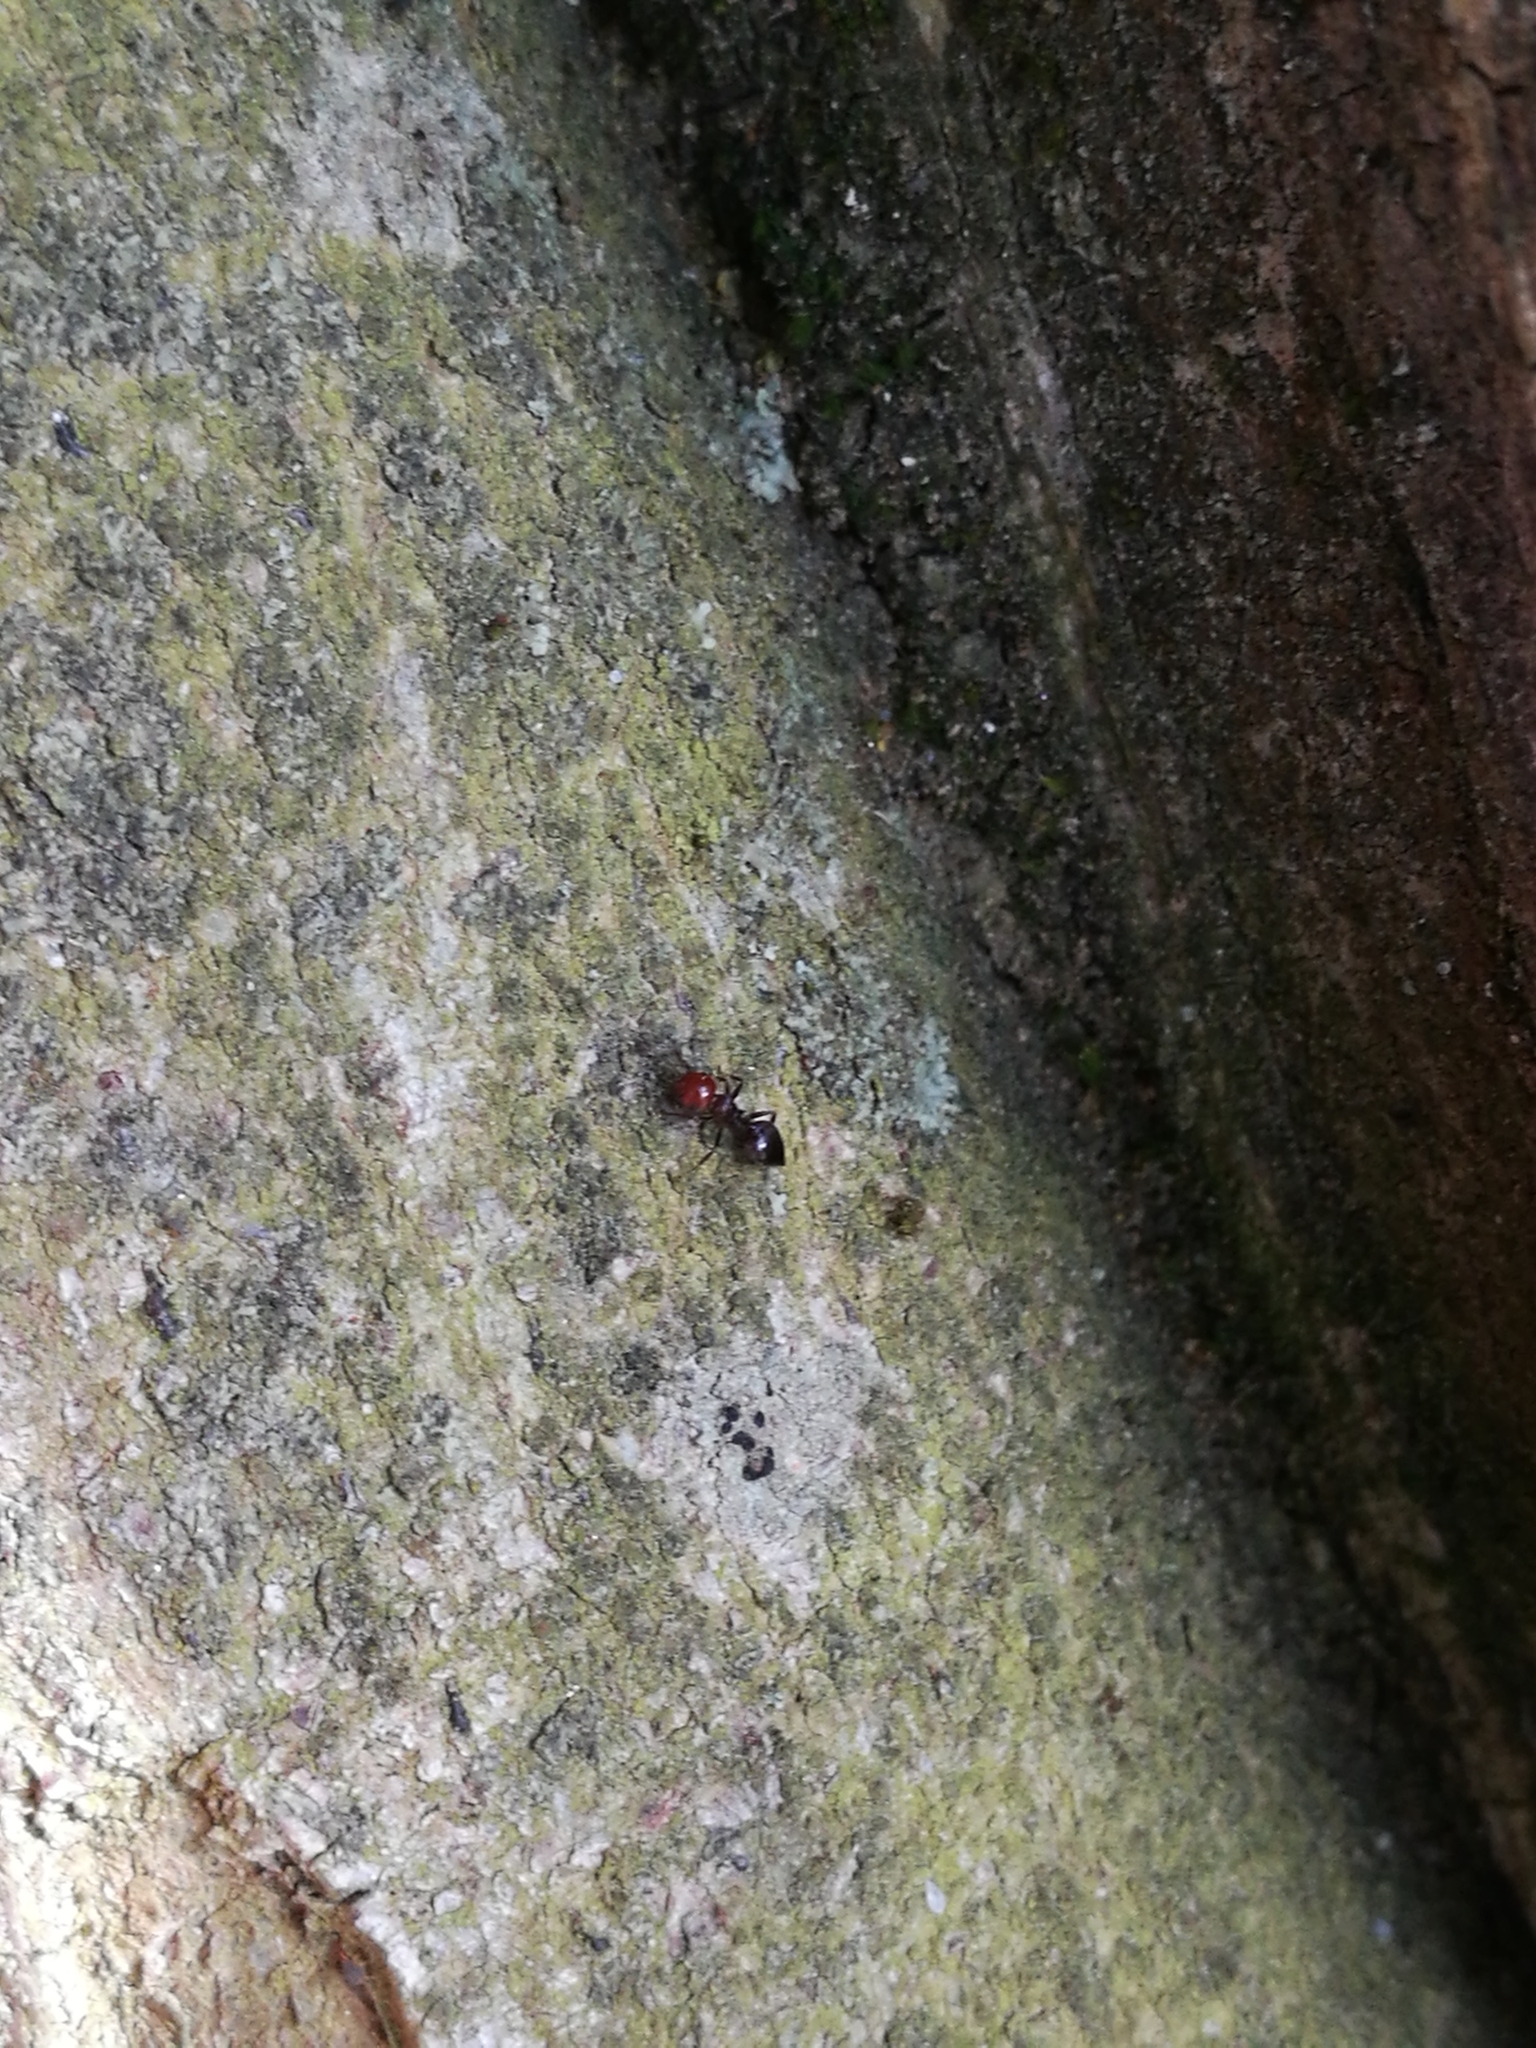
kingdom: Animalia
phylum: Arthropoda
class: Insecta
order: Hymenoptera
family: Formicidae
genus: Crematogaster
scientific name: Crematogaster scutellaris
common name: Fourmi du liège
